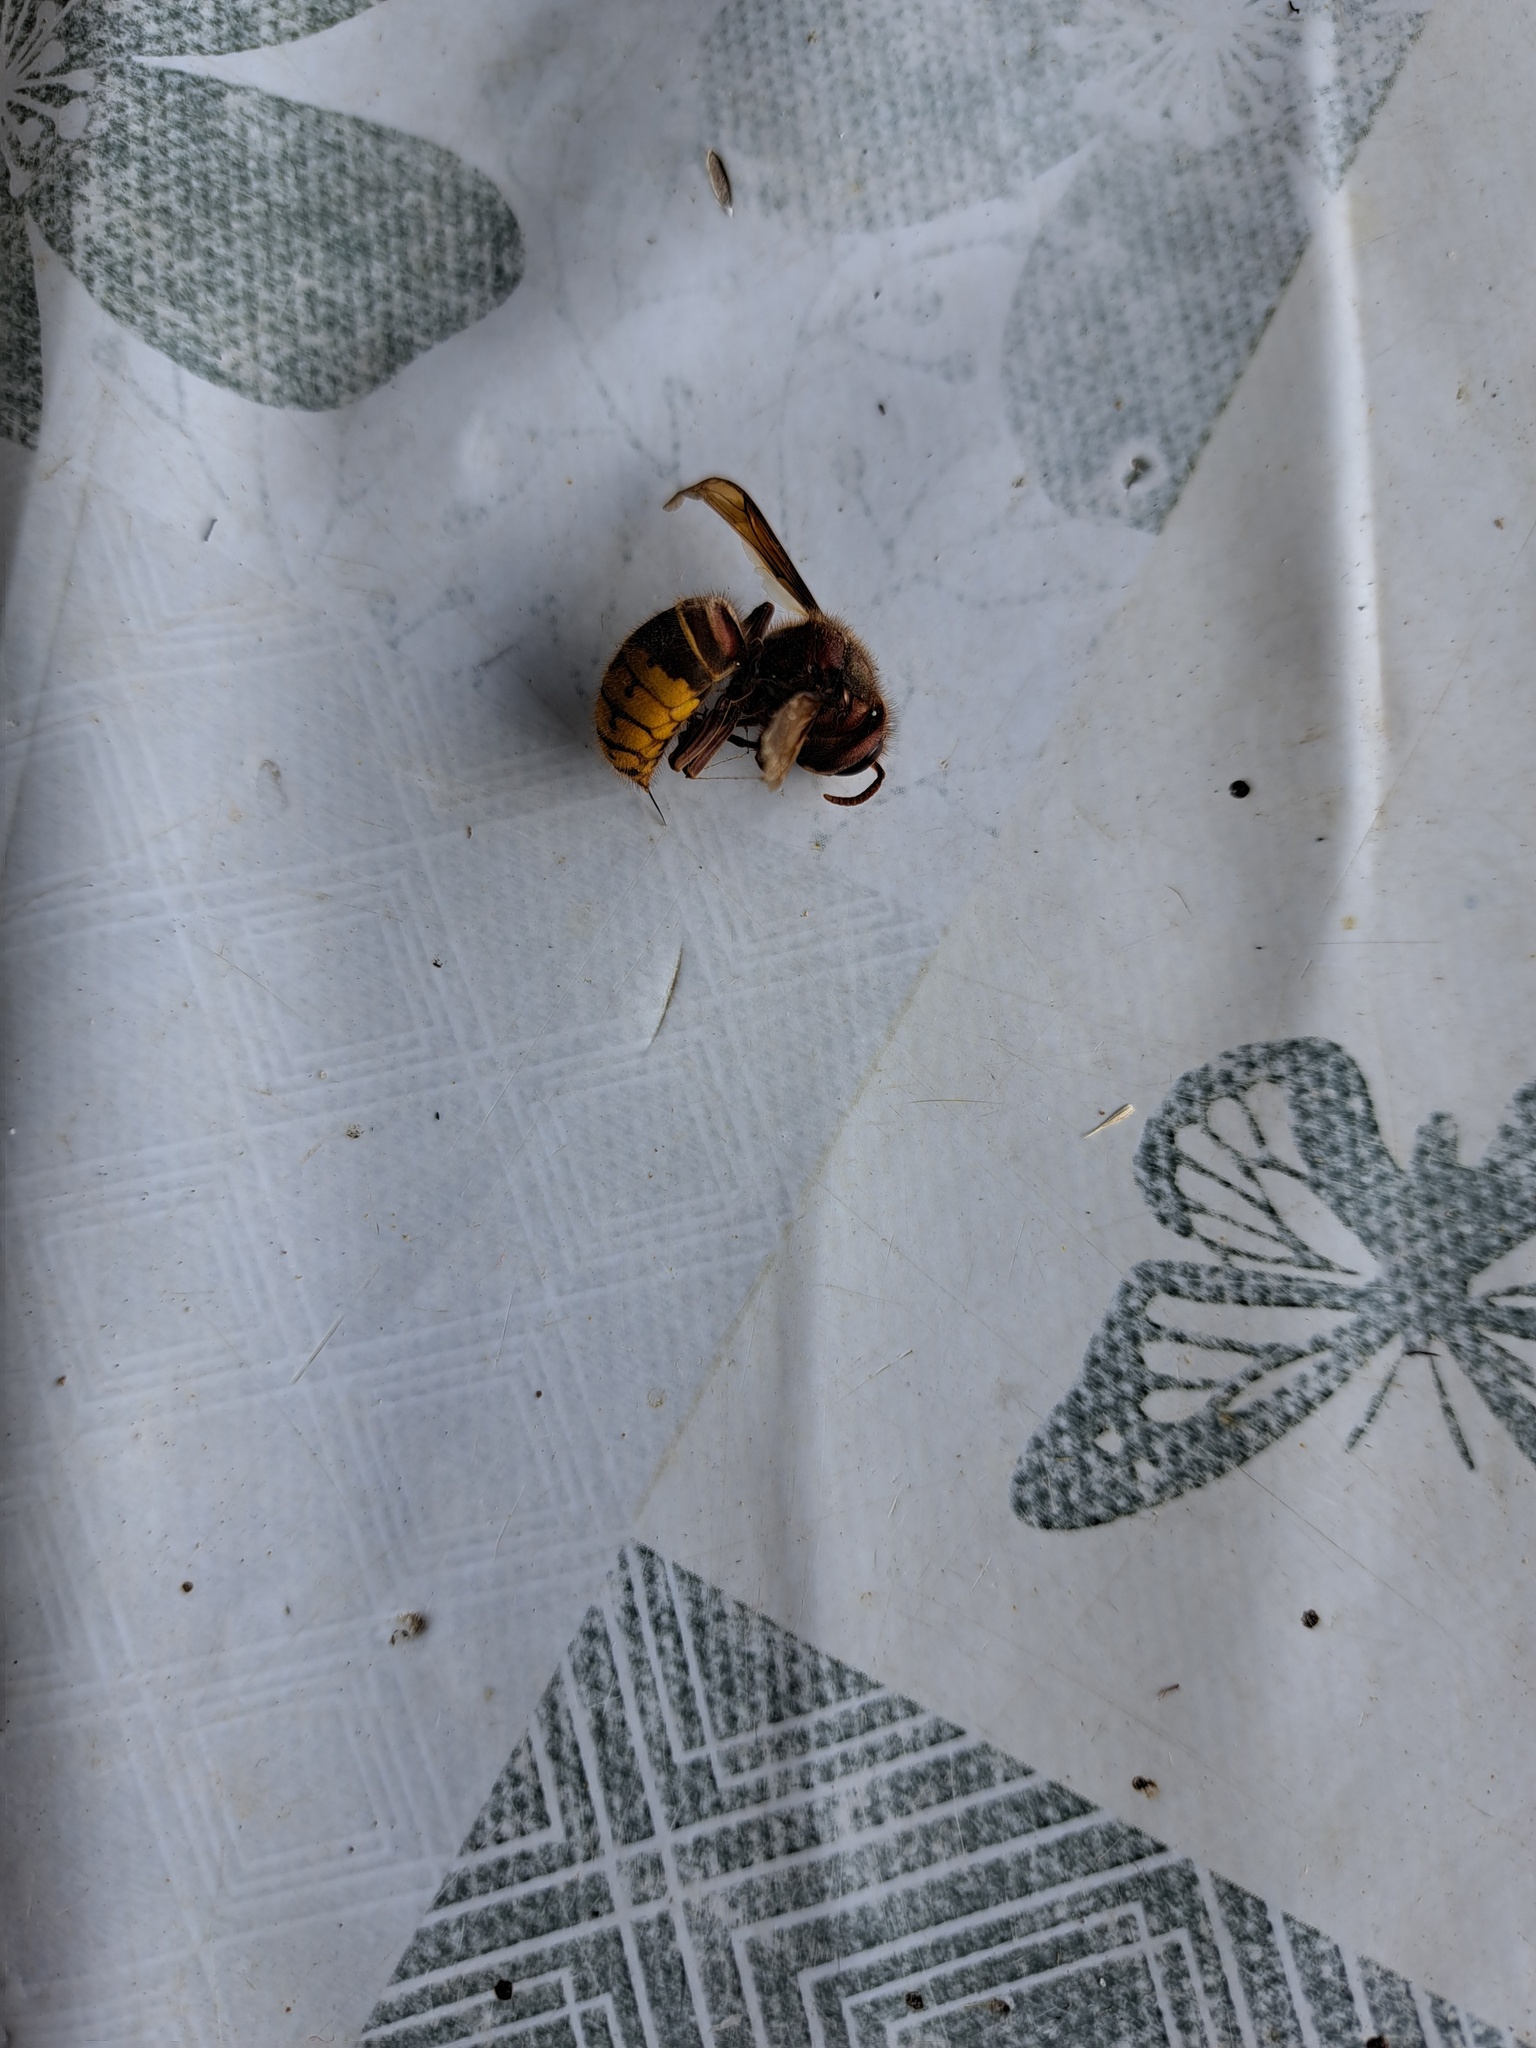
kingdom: Animalia
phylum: Arthropoda
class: Insecta
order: Hymenoptera
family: Vespidae
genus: Vespa
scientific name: Vespa crabro
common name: Hornet
